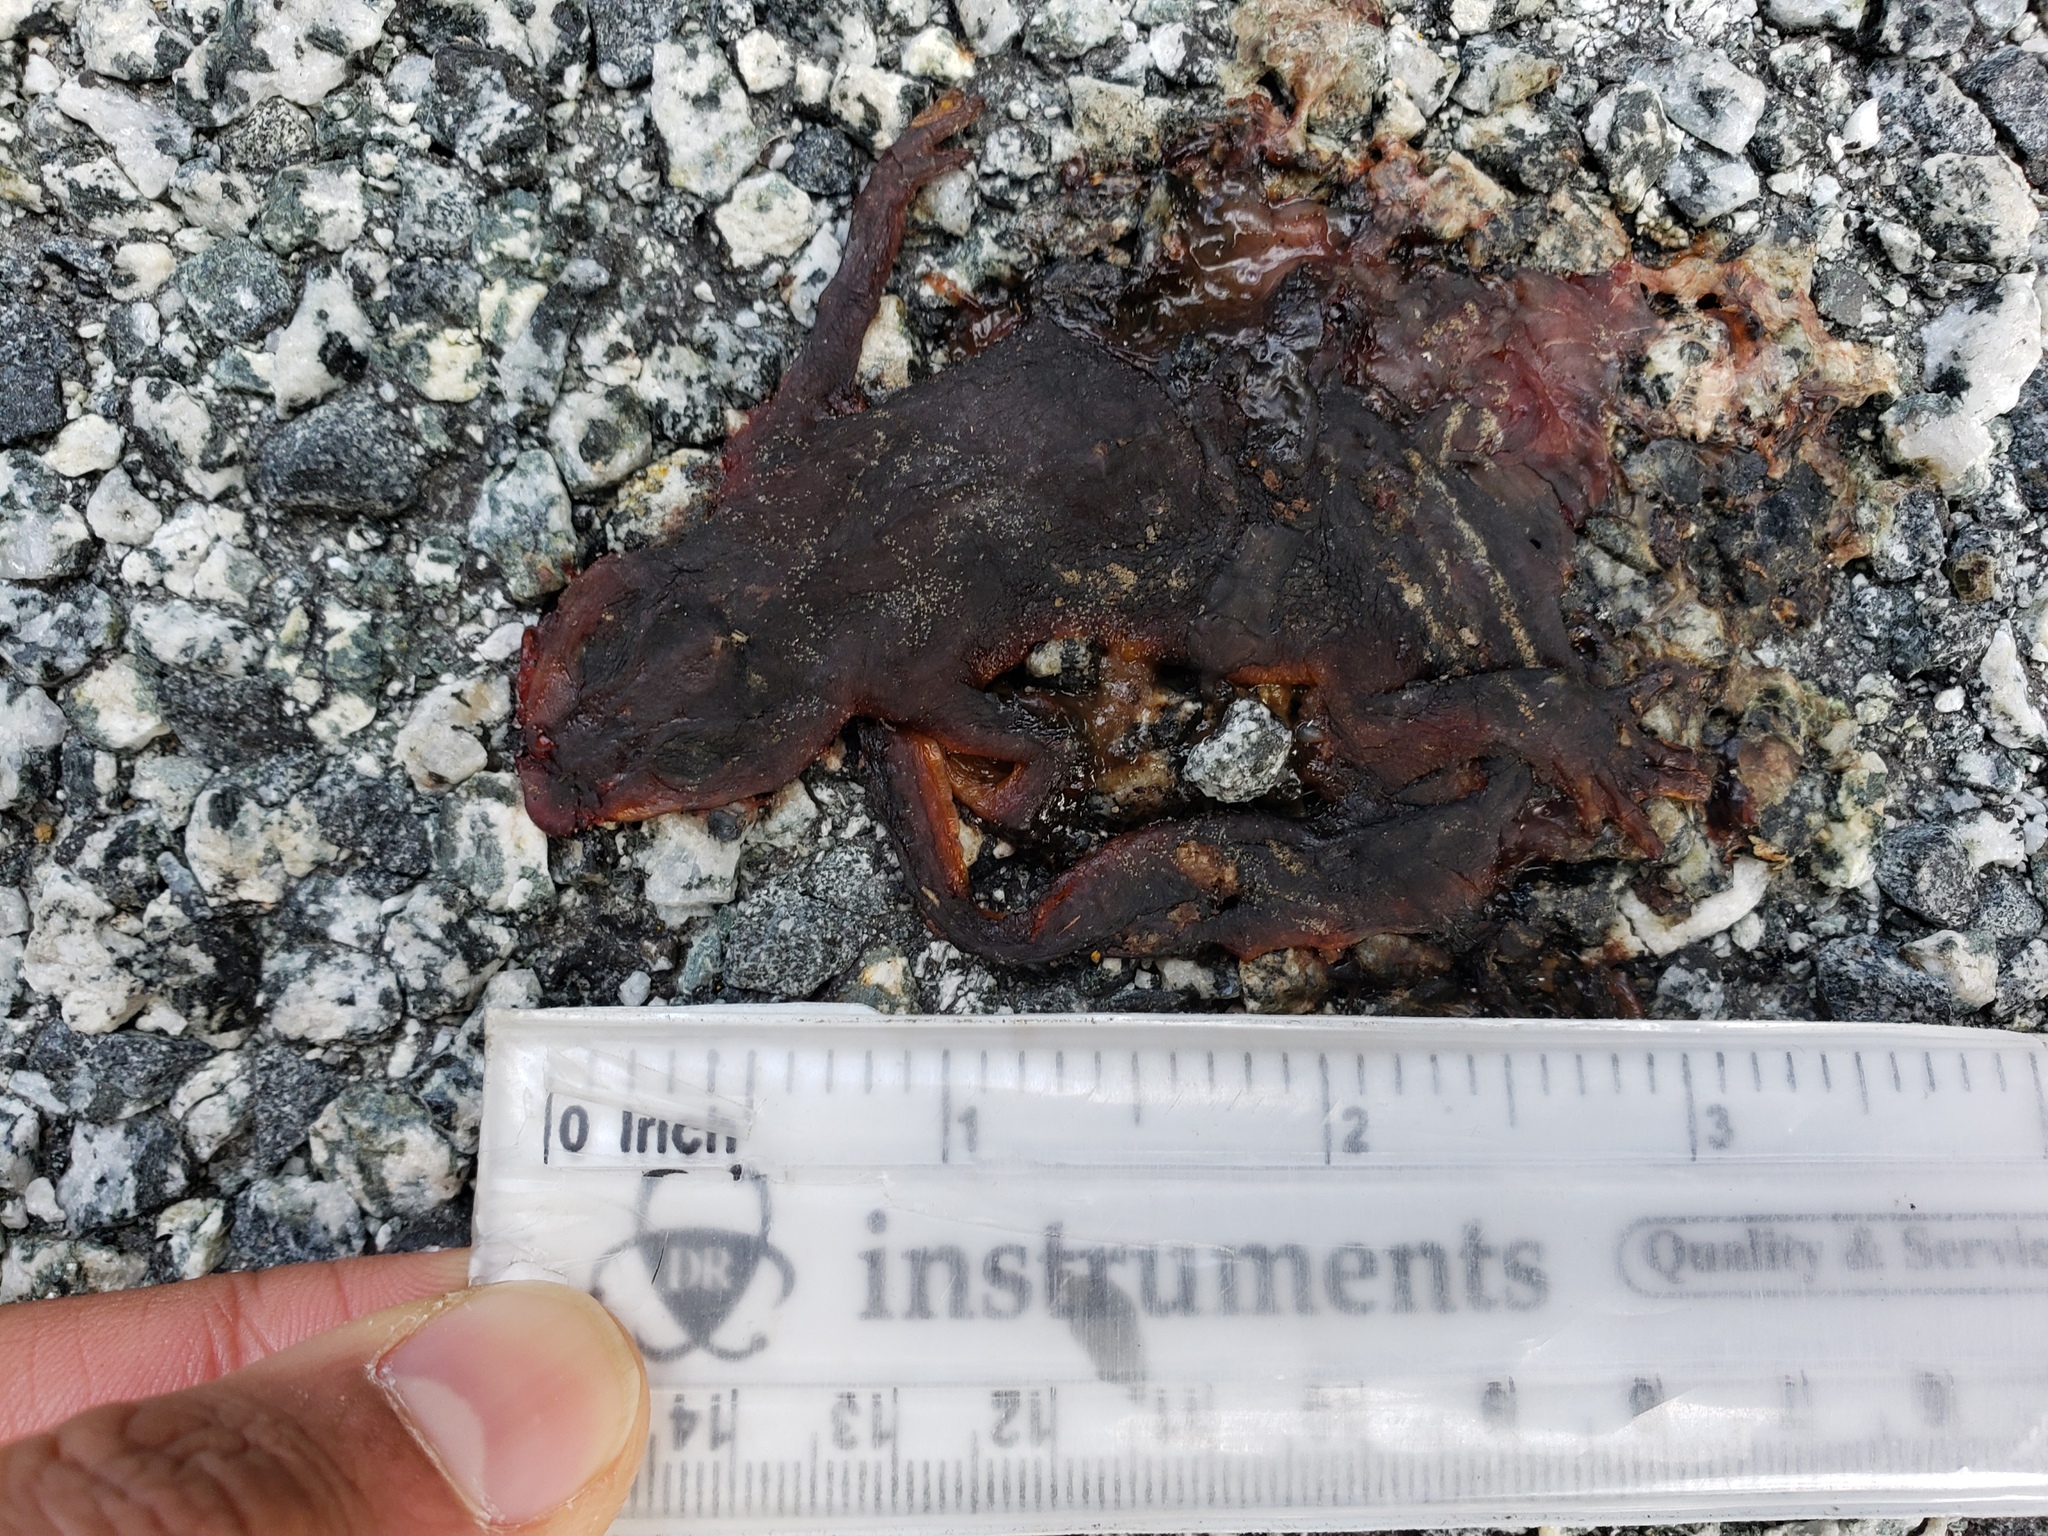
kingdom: Animalia
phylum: Chordata
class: Amphibia
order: Caudata
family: Salamandridae
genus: Taricha
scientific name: Taricha
